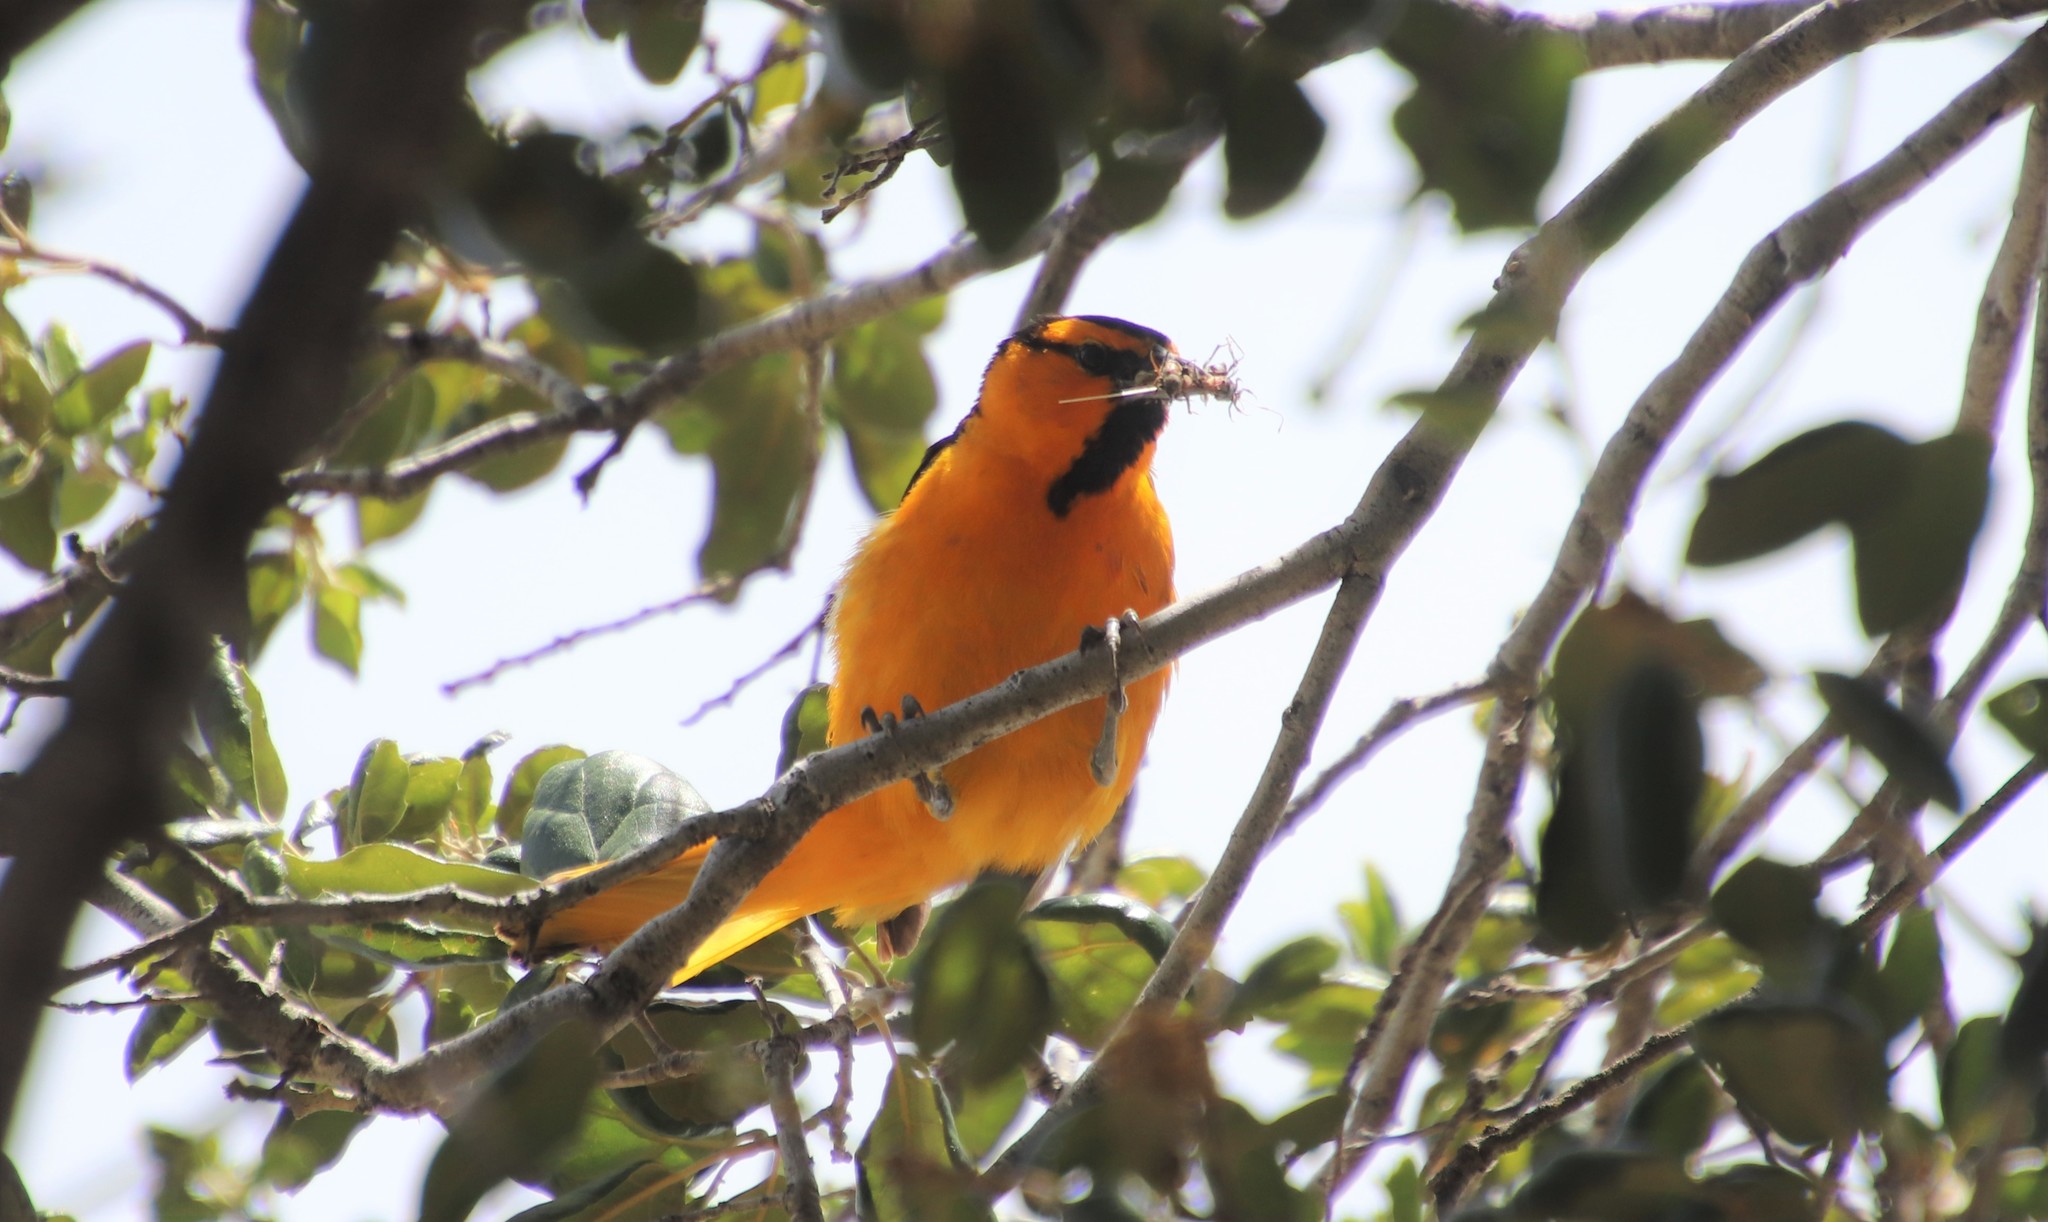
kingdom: Animalia
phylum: Chordata
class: Aves
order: Passeriformes
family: Icteridae
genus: Icterus
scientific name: Icterus bullockii
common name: Bullock's oriole
